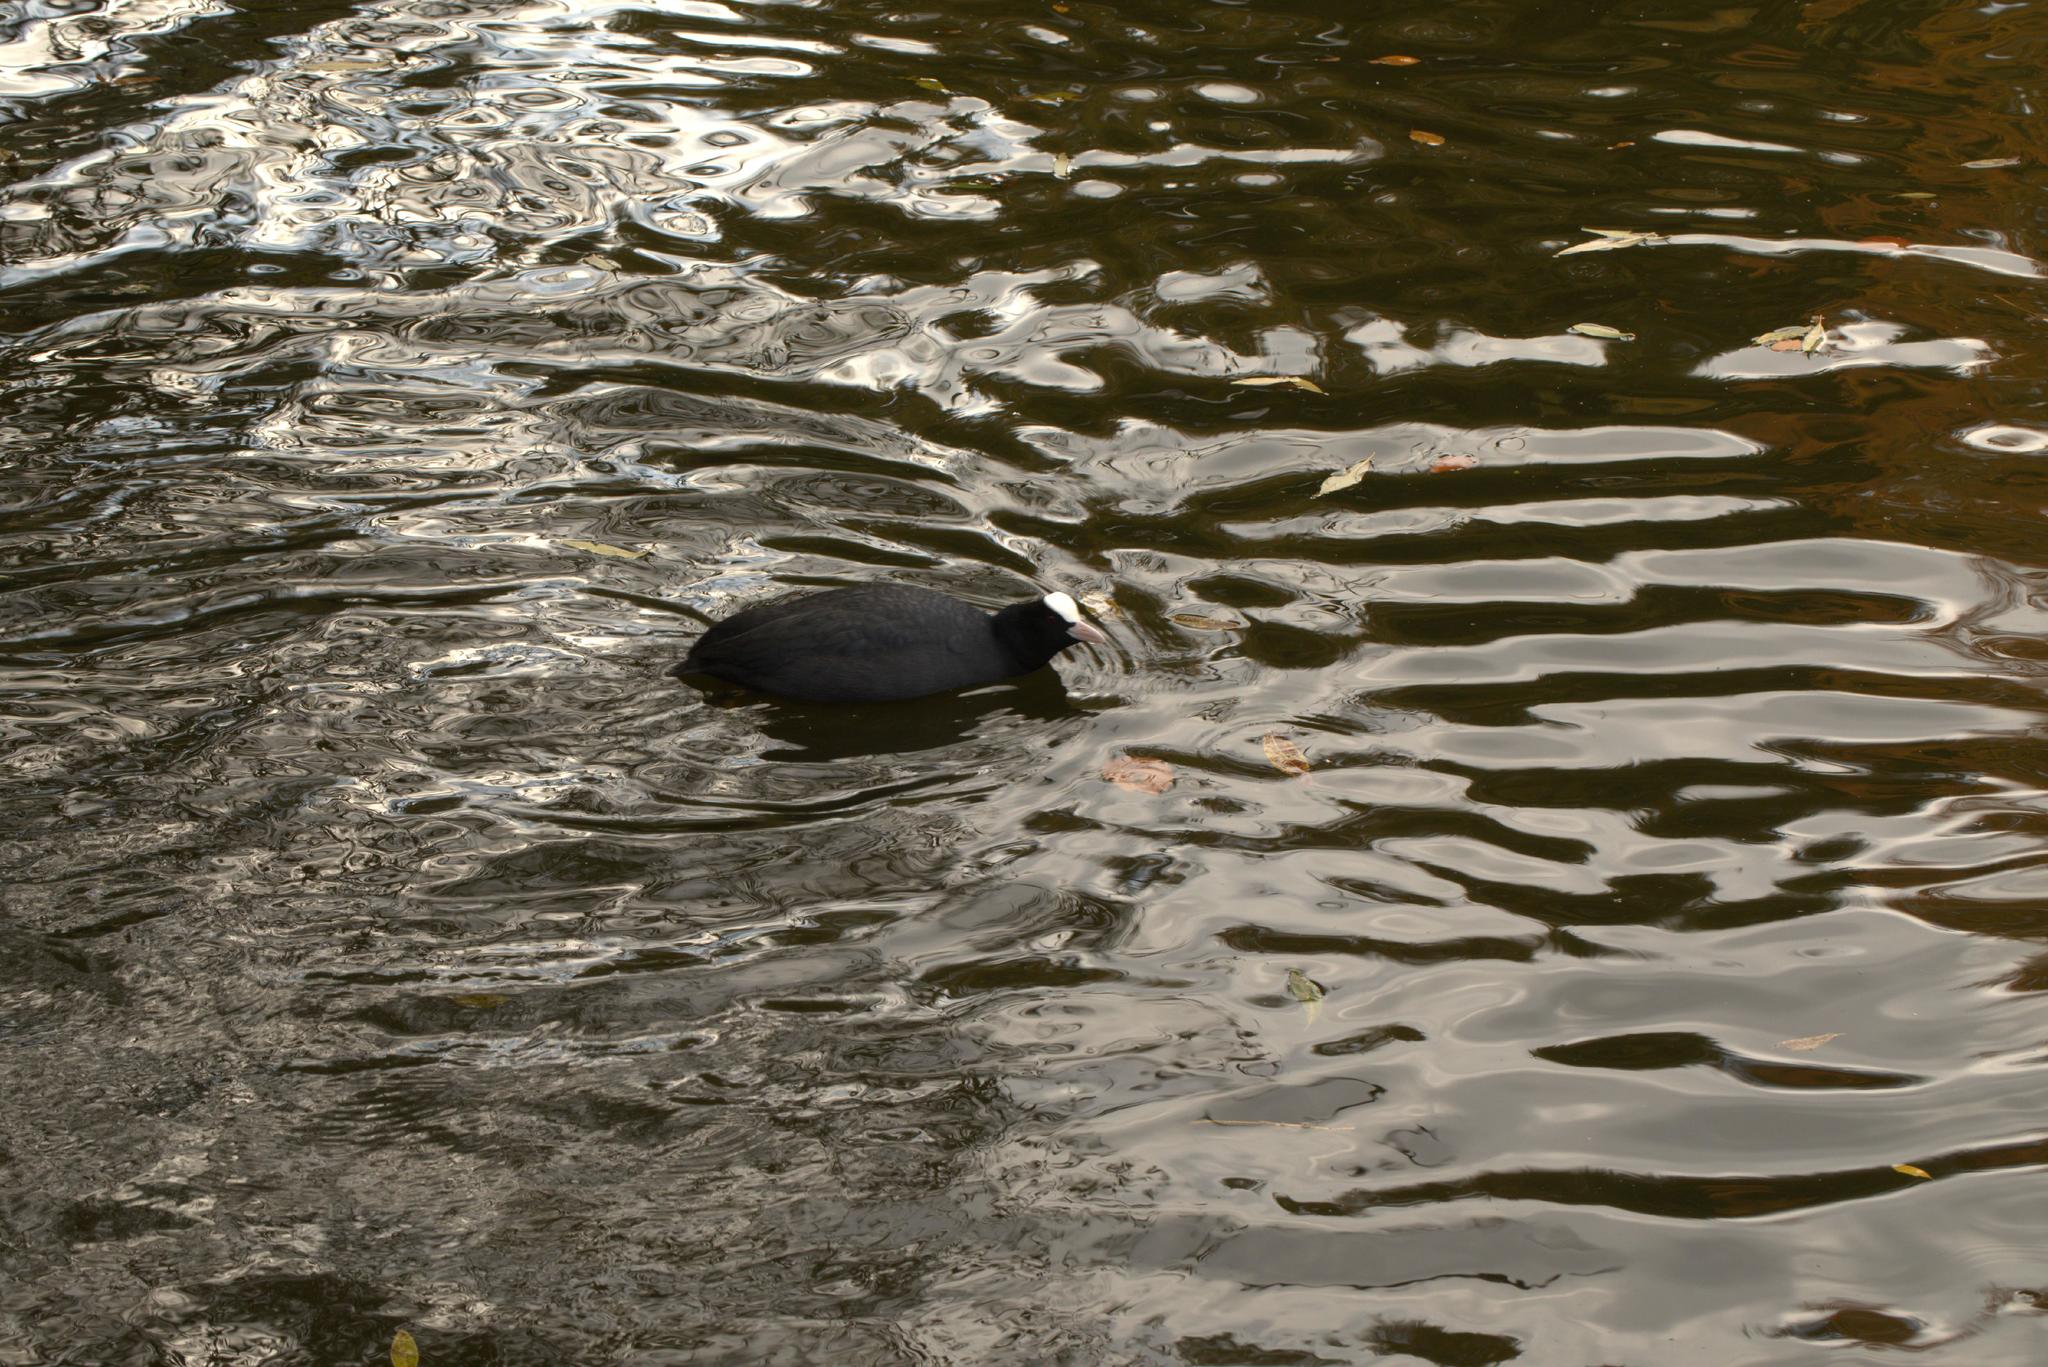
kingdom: Animalia
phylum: Chordata
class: Aves
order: Gruiformes
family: Rallidae
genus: Fulica
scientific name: Fulica atra
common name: Eurasian coot
